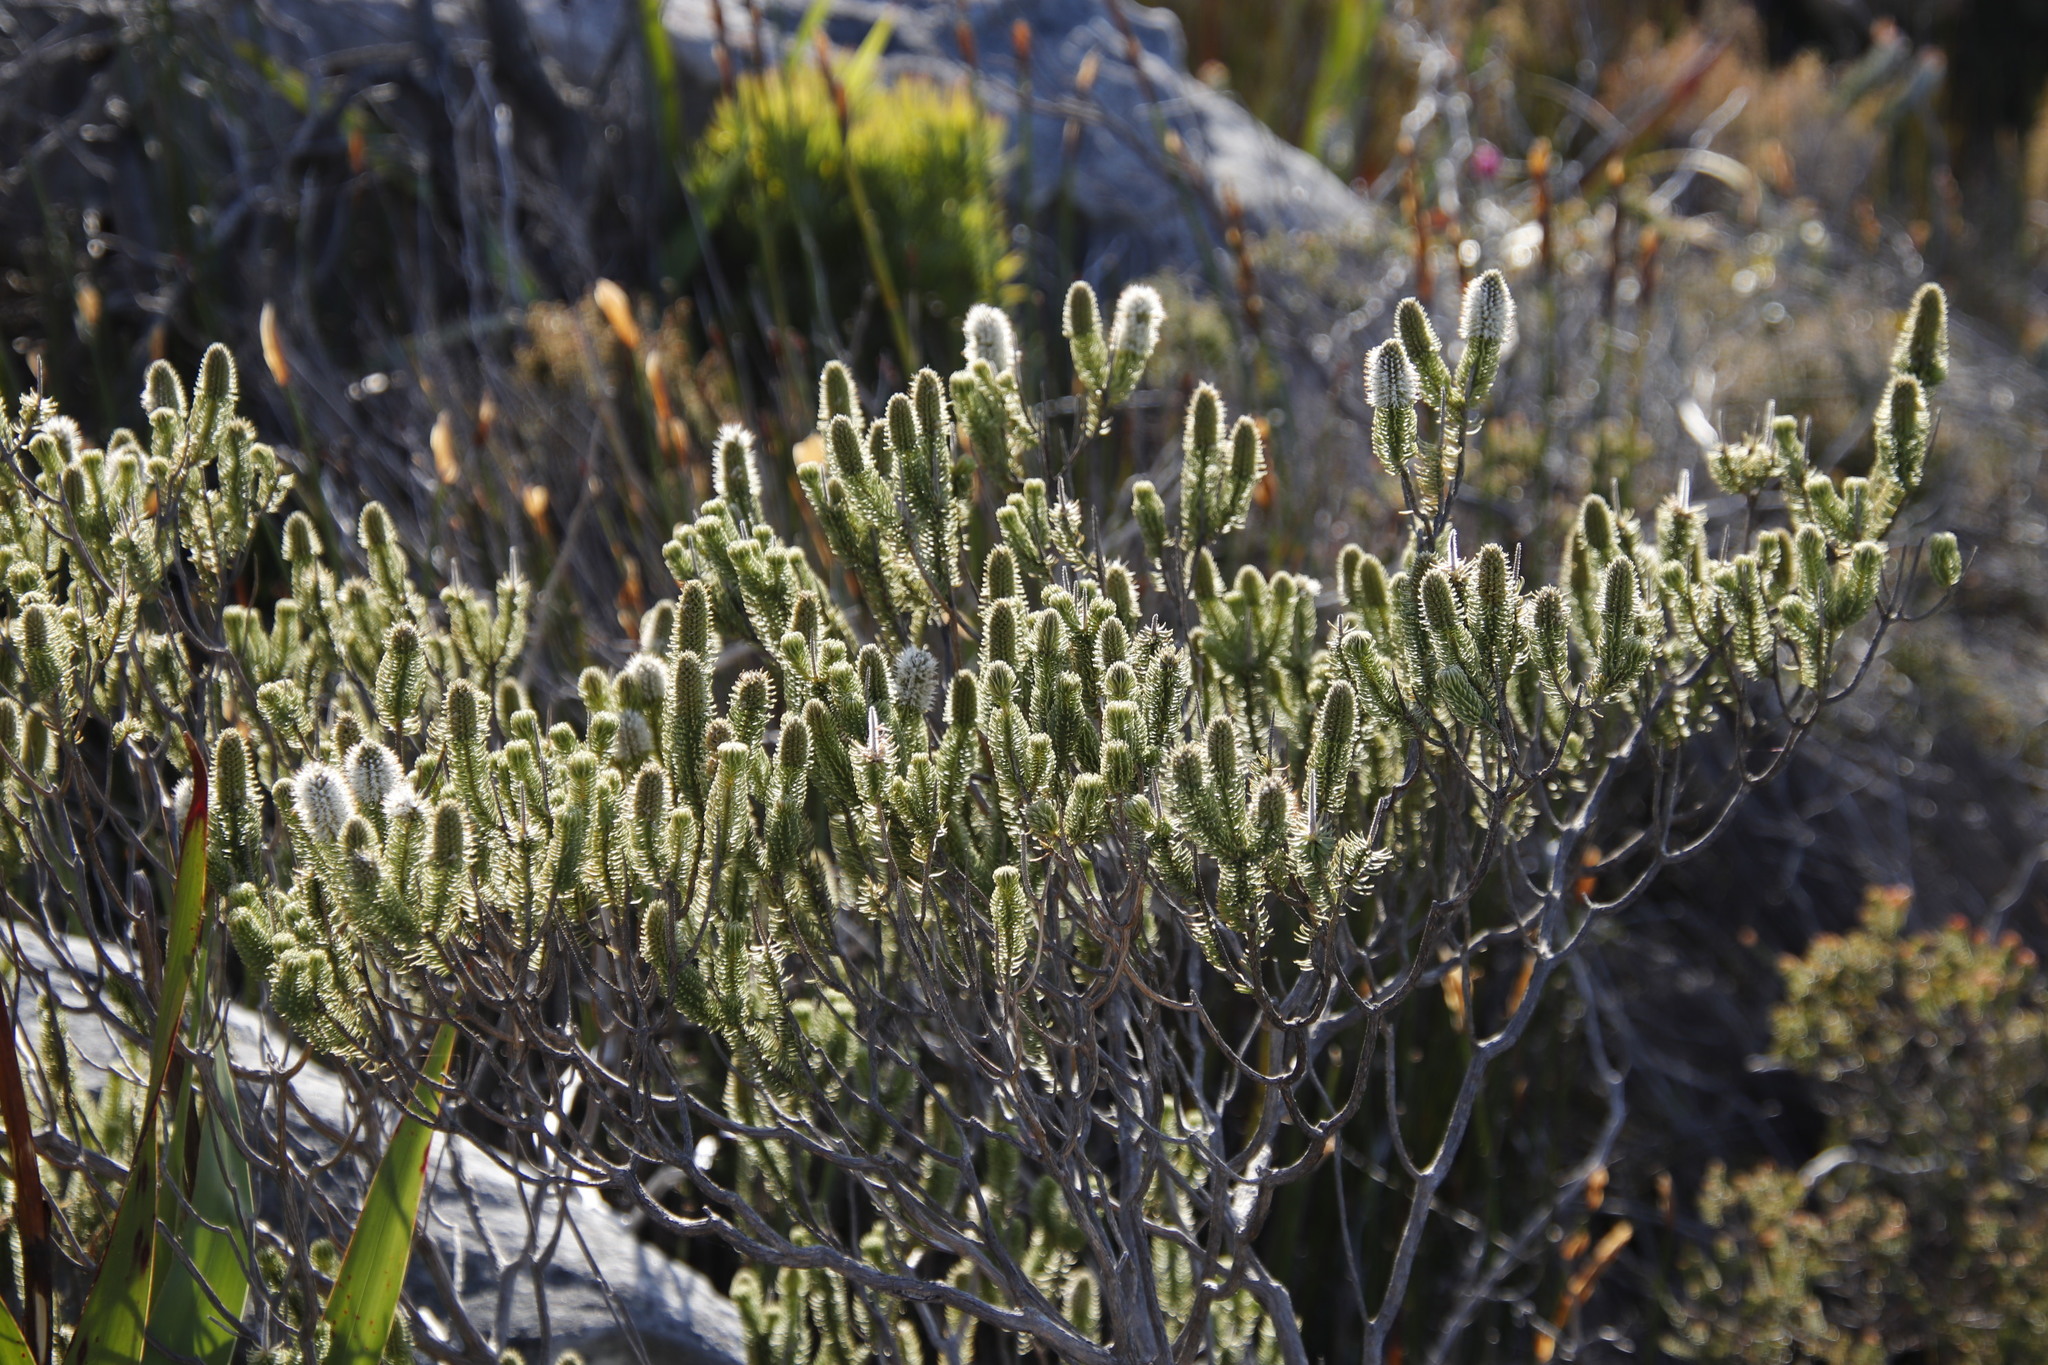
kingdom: Plantae
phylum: Tracheophyta
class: Magnoliopsida
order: Lamiales
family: Stilbaceae
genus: Stilbe
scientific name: Stilbe vestita
